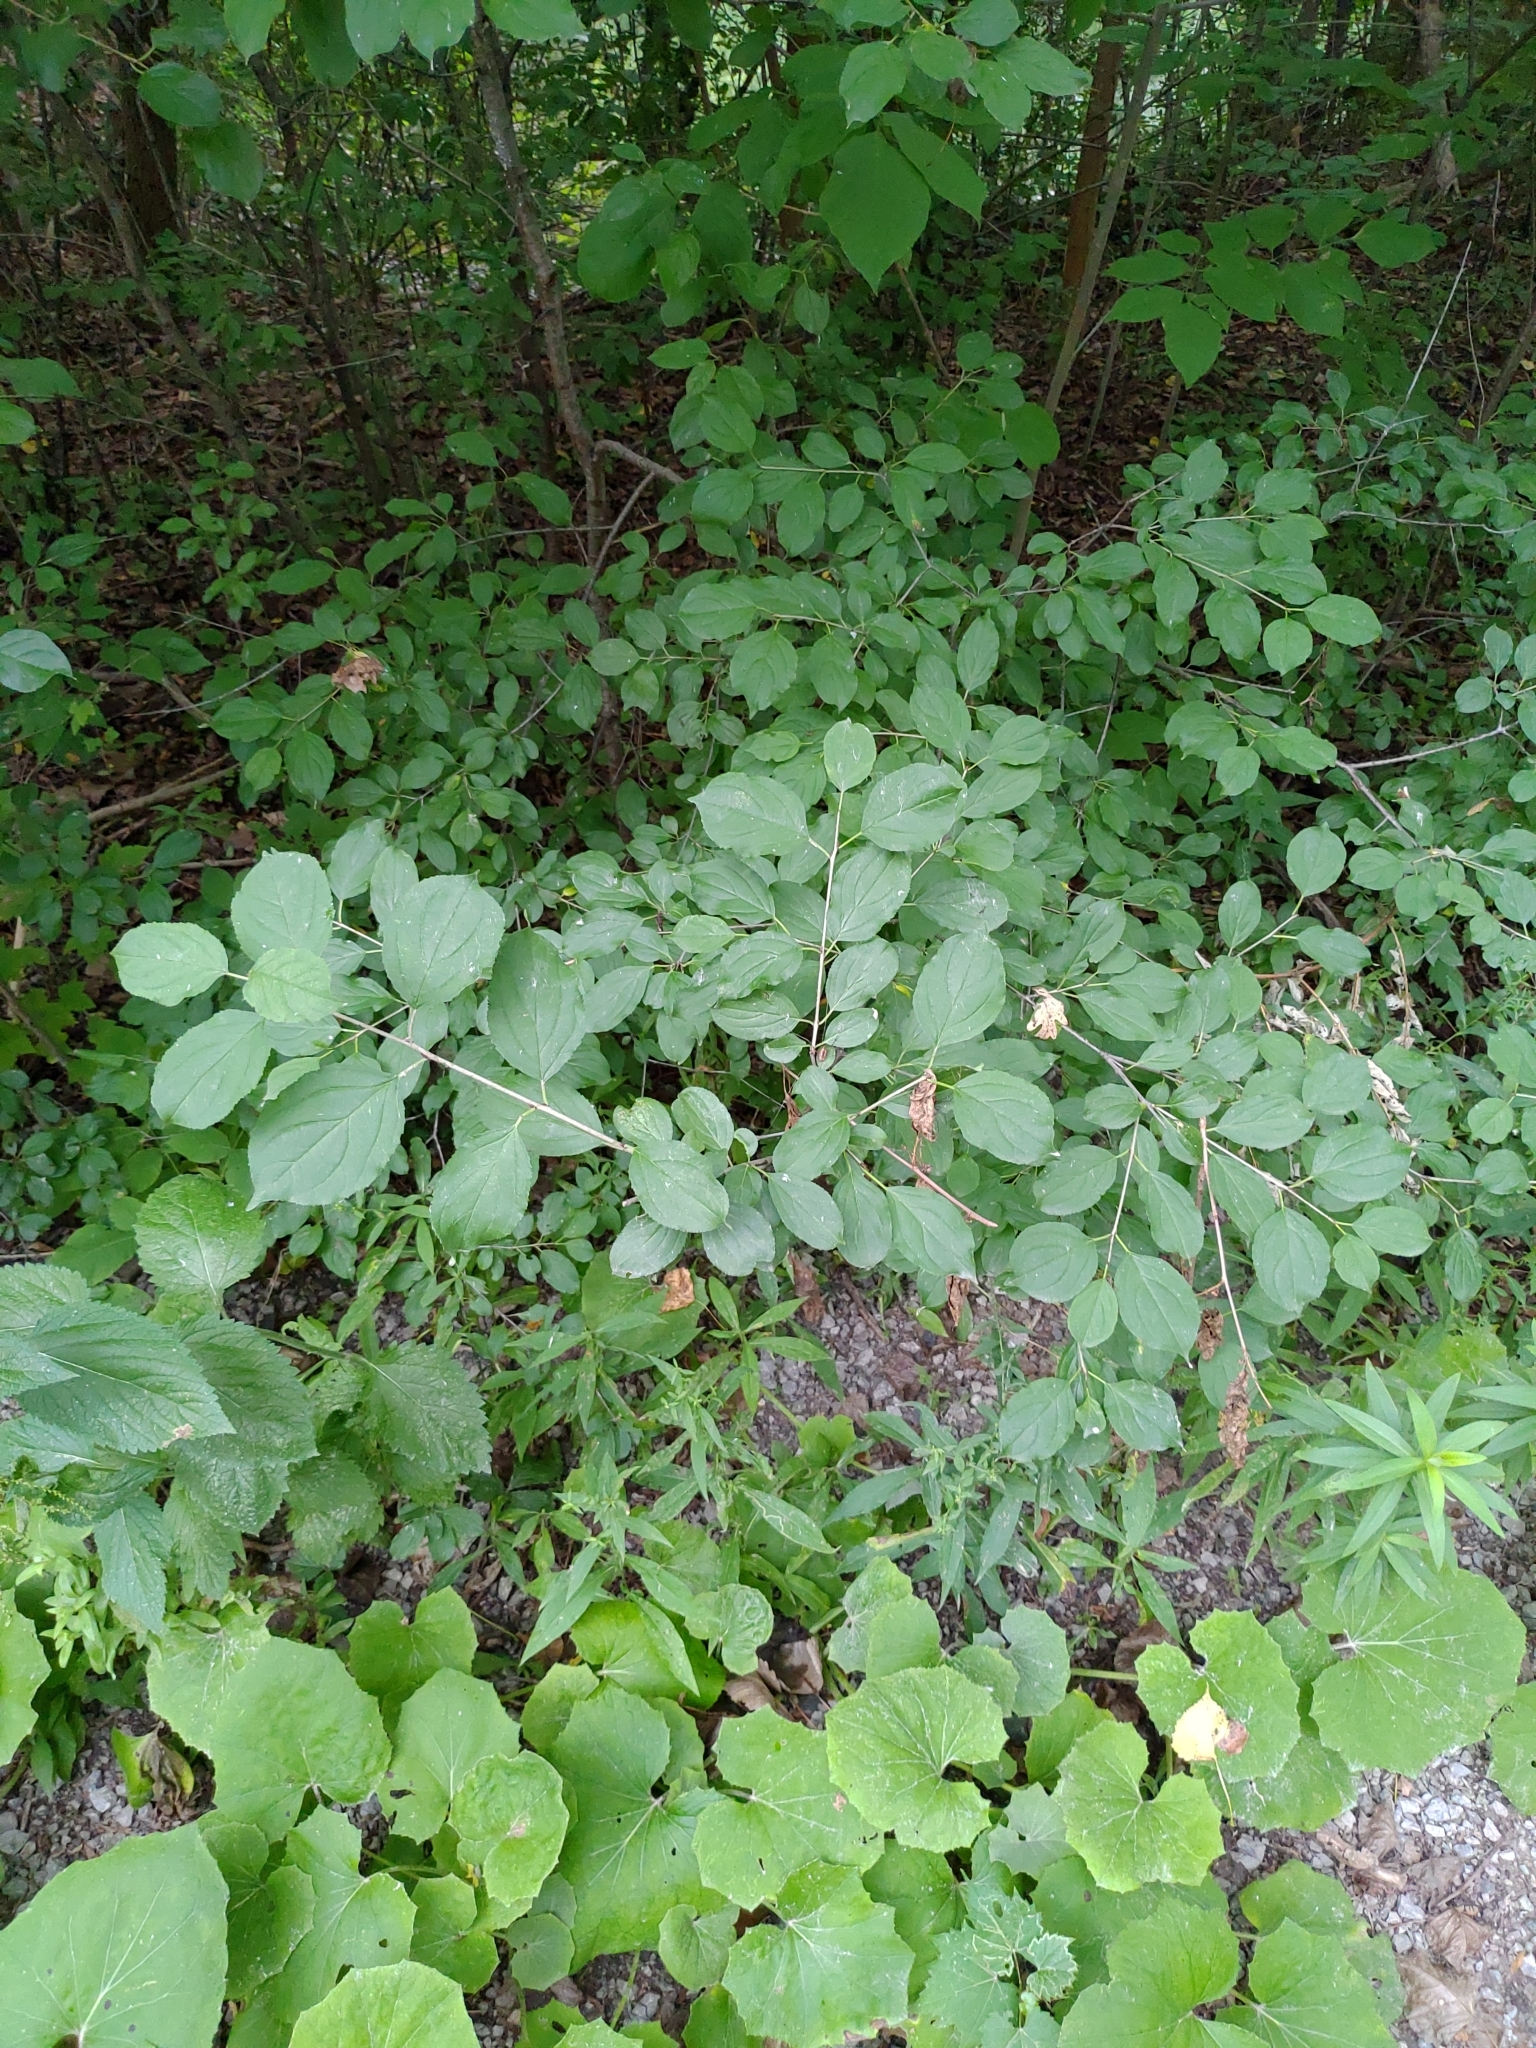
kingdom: Plantae
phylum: Tracheophyta
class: Magnoliopsida
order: Rosales
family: Rhamnaceae
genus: Rhamnus
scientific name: Rhamnus cathartica
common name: Common buckthorn
